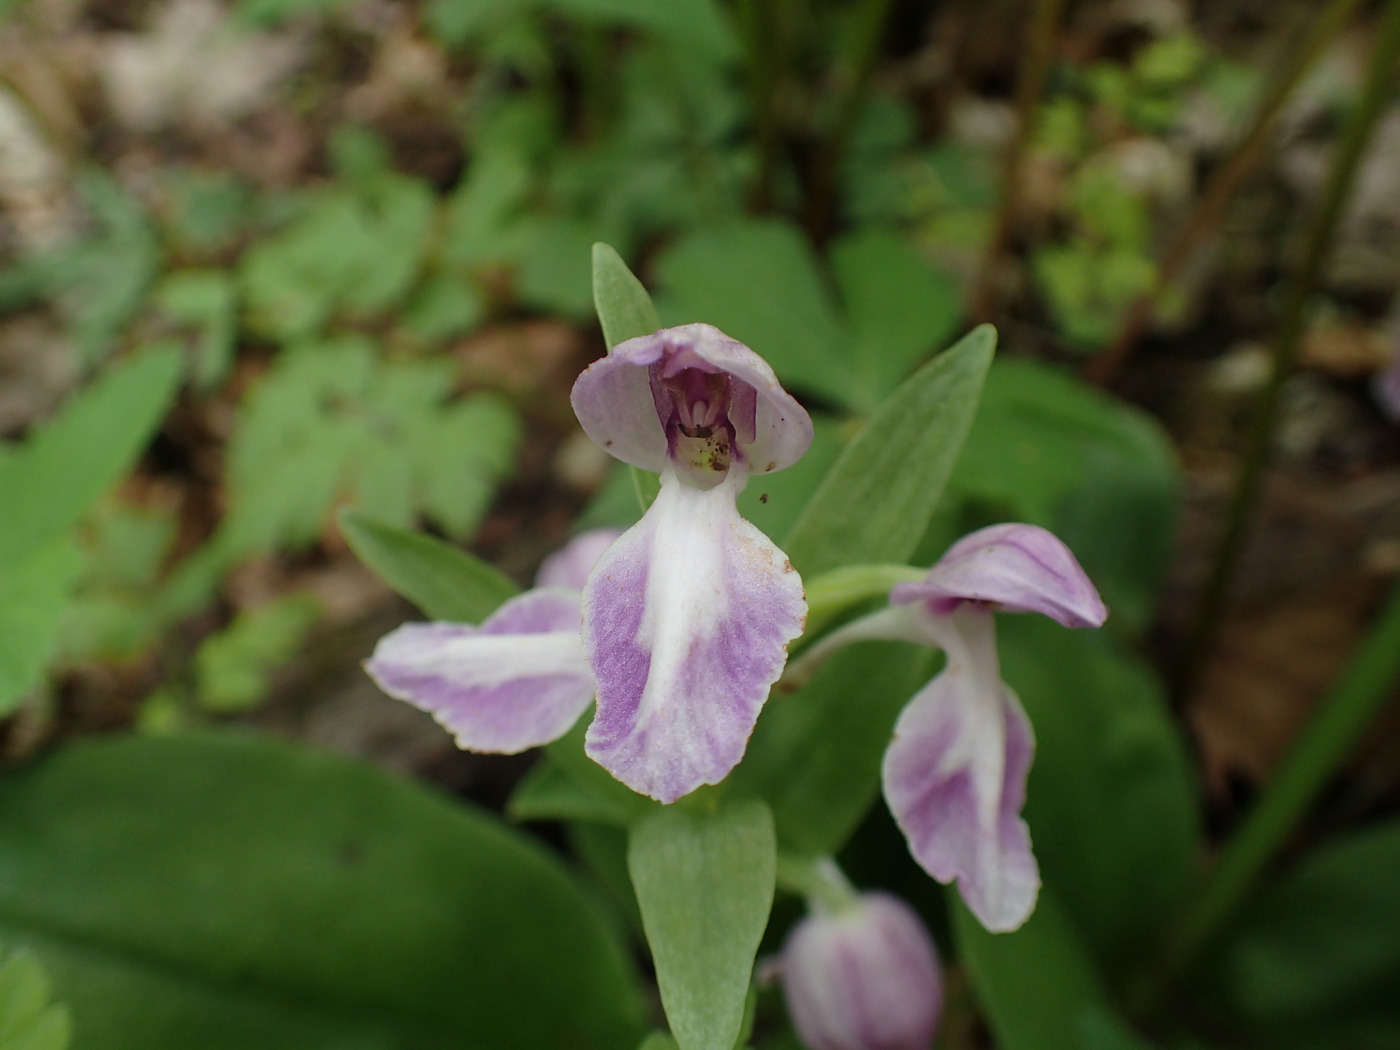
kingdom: Plantae
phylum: Tracheophyta
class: Liliopsida
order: Asparagales
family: Orchidaceae
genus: Galearis
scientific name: Galearis spectabilis
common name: Purple-hooded orchis
